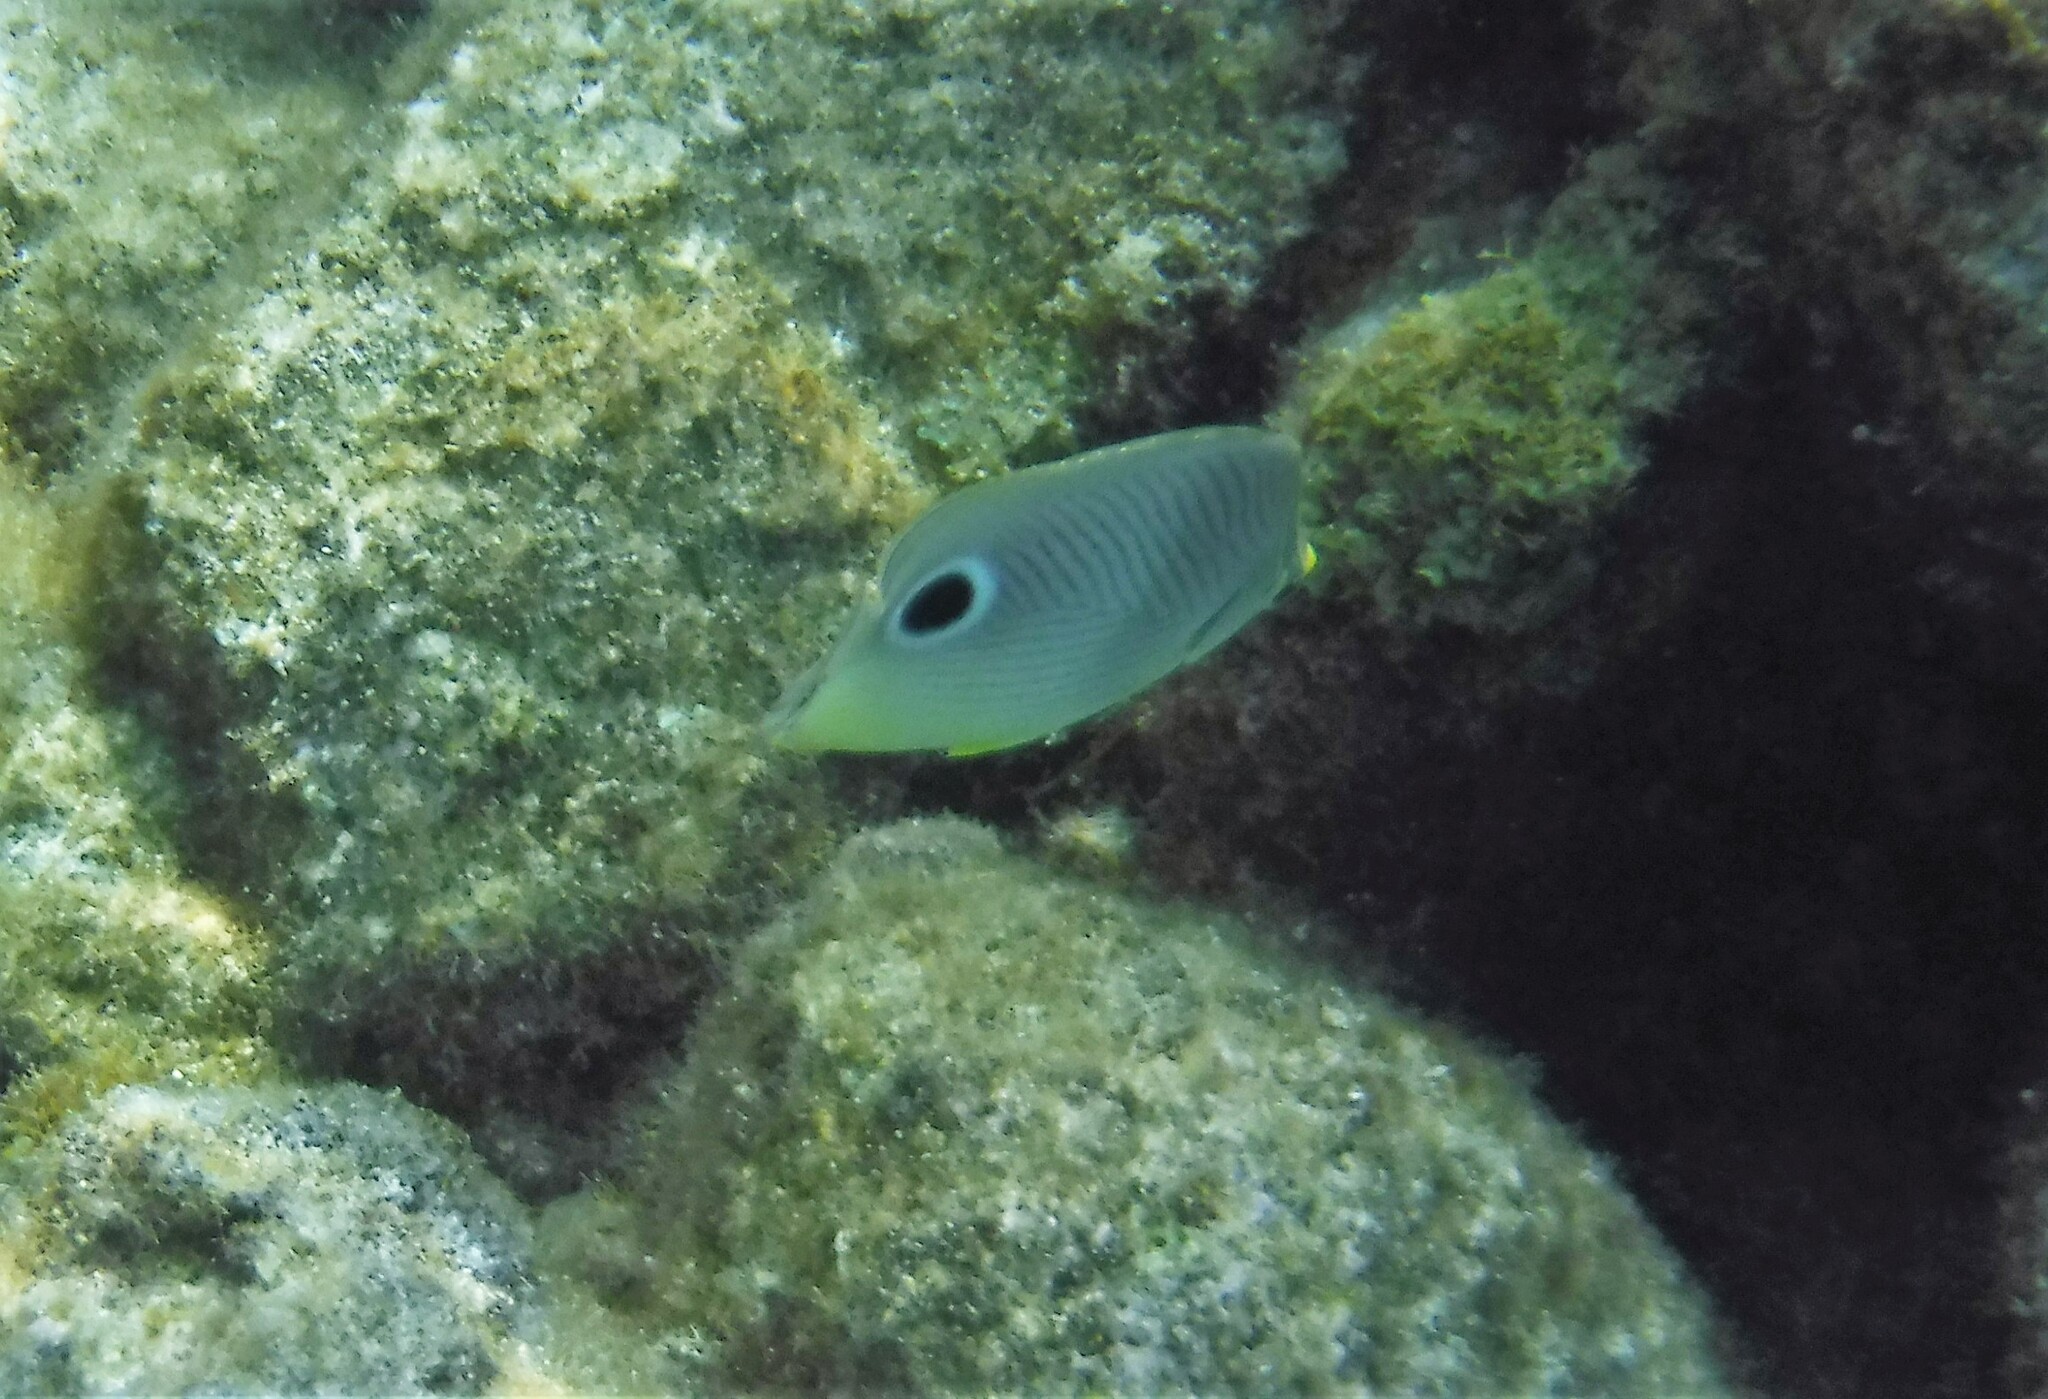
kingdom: Animalia
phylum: Chordata
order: Perciformes
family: Chaetodontidae
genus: Chaetodon
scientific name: Chaetodon capistratus
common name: Kete
